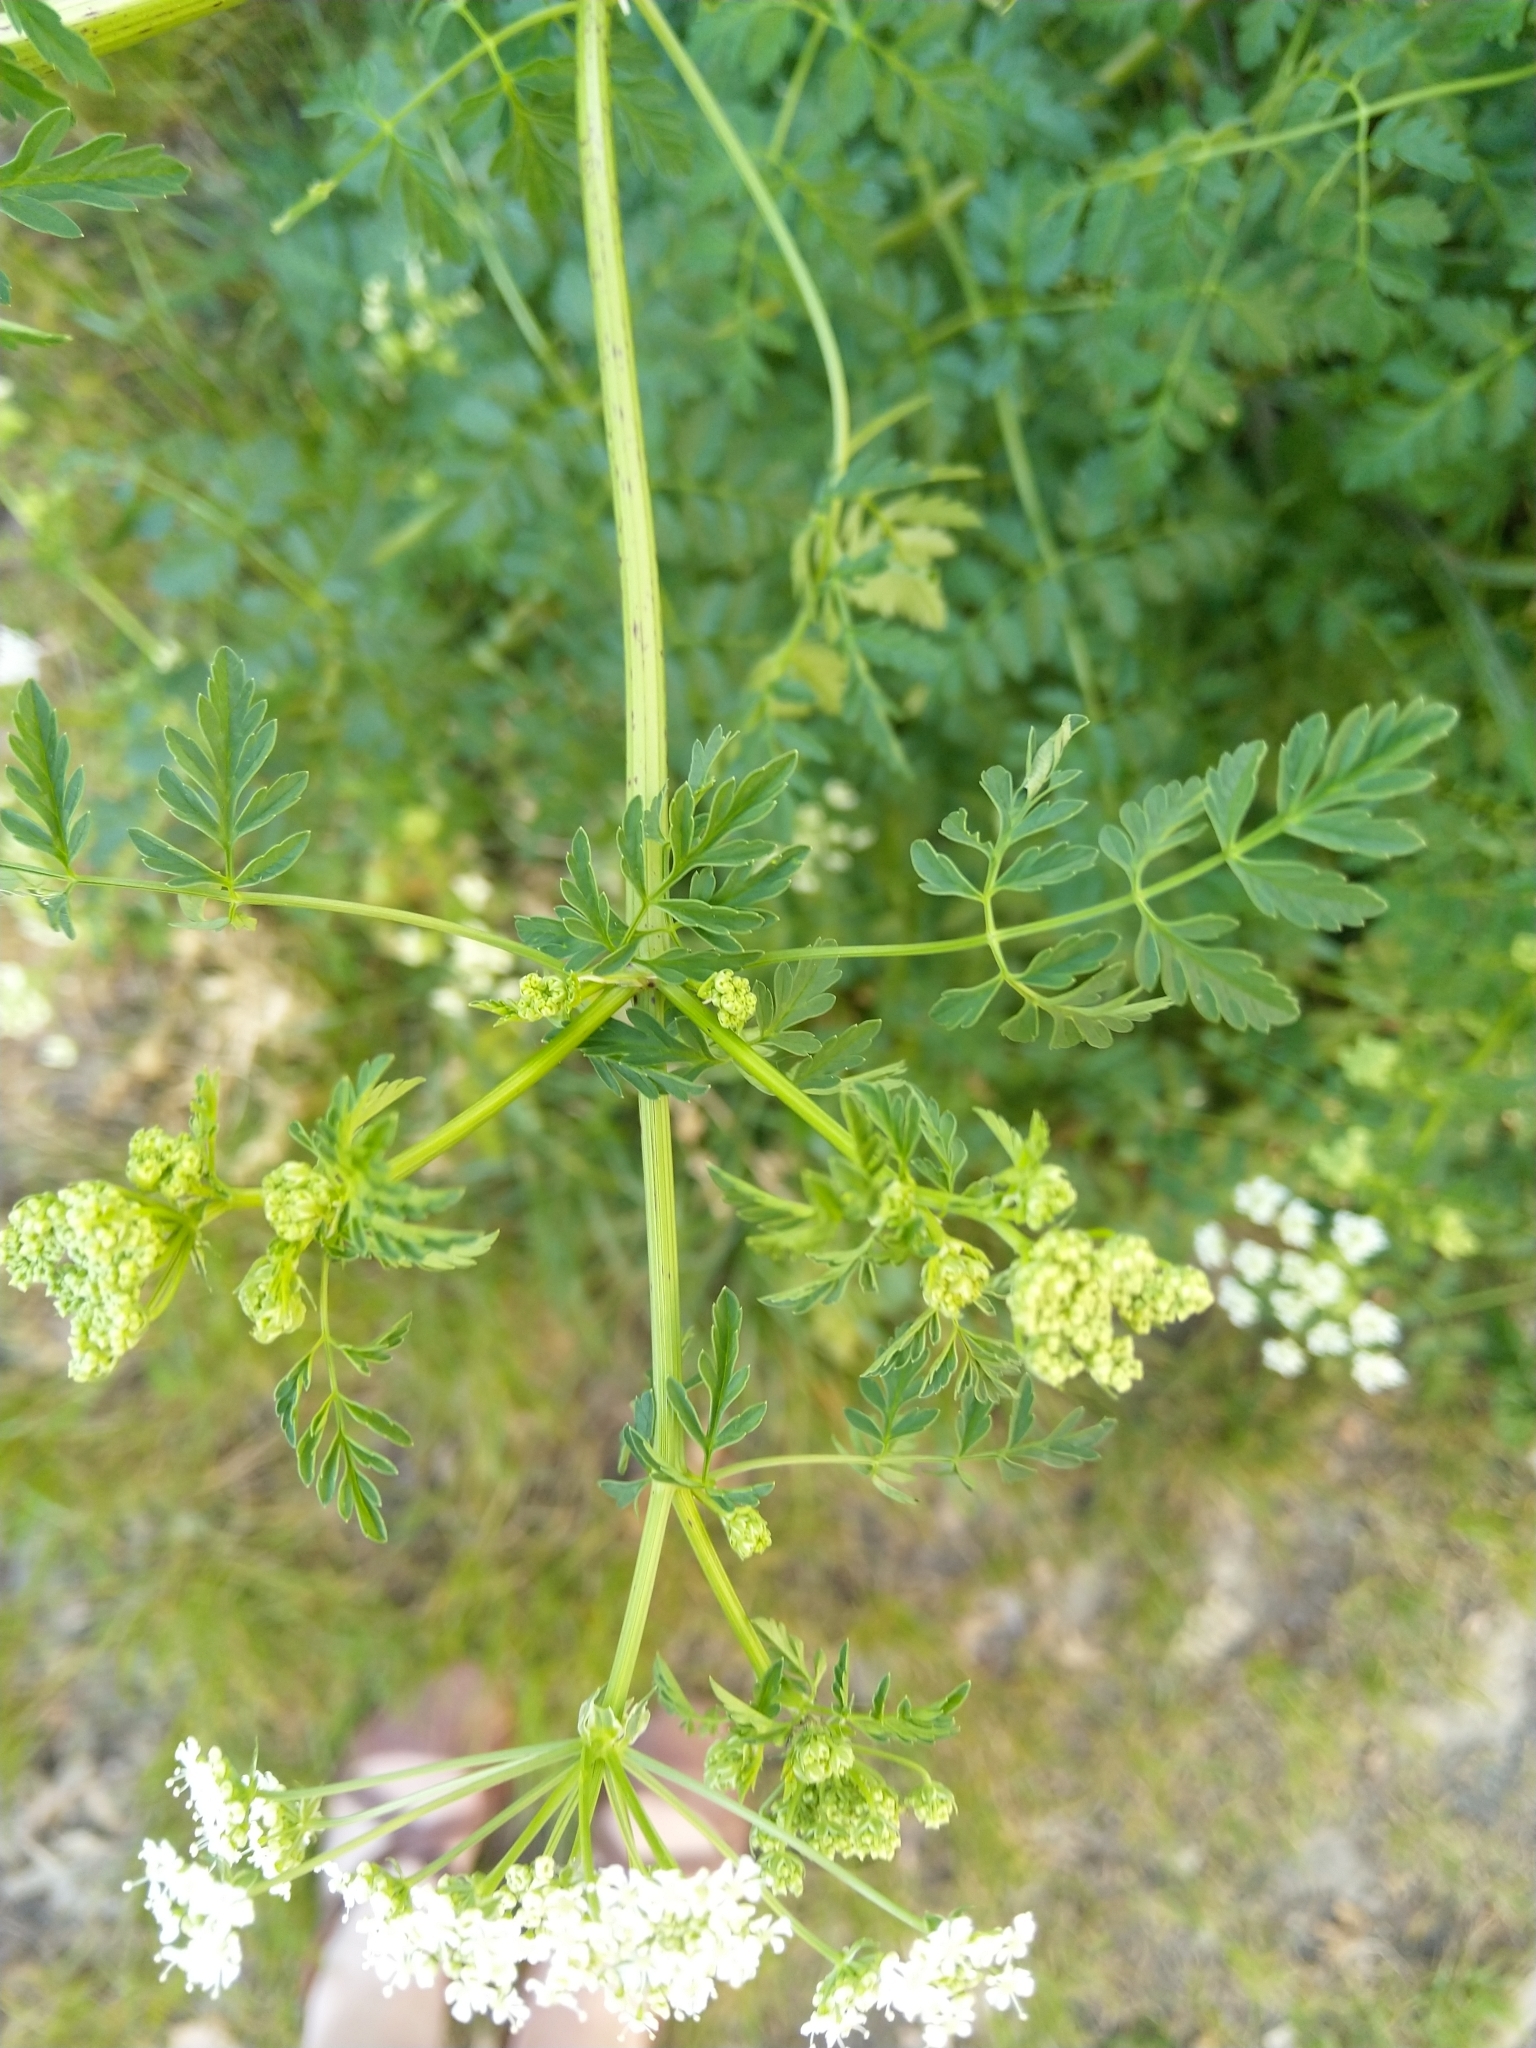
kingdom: Plantae
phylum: Tracheophyta
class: Magnoliopsida
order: Apiales
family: Apiaceae
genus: Conium
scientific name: Conium maculatum
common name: Hemlock
